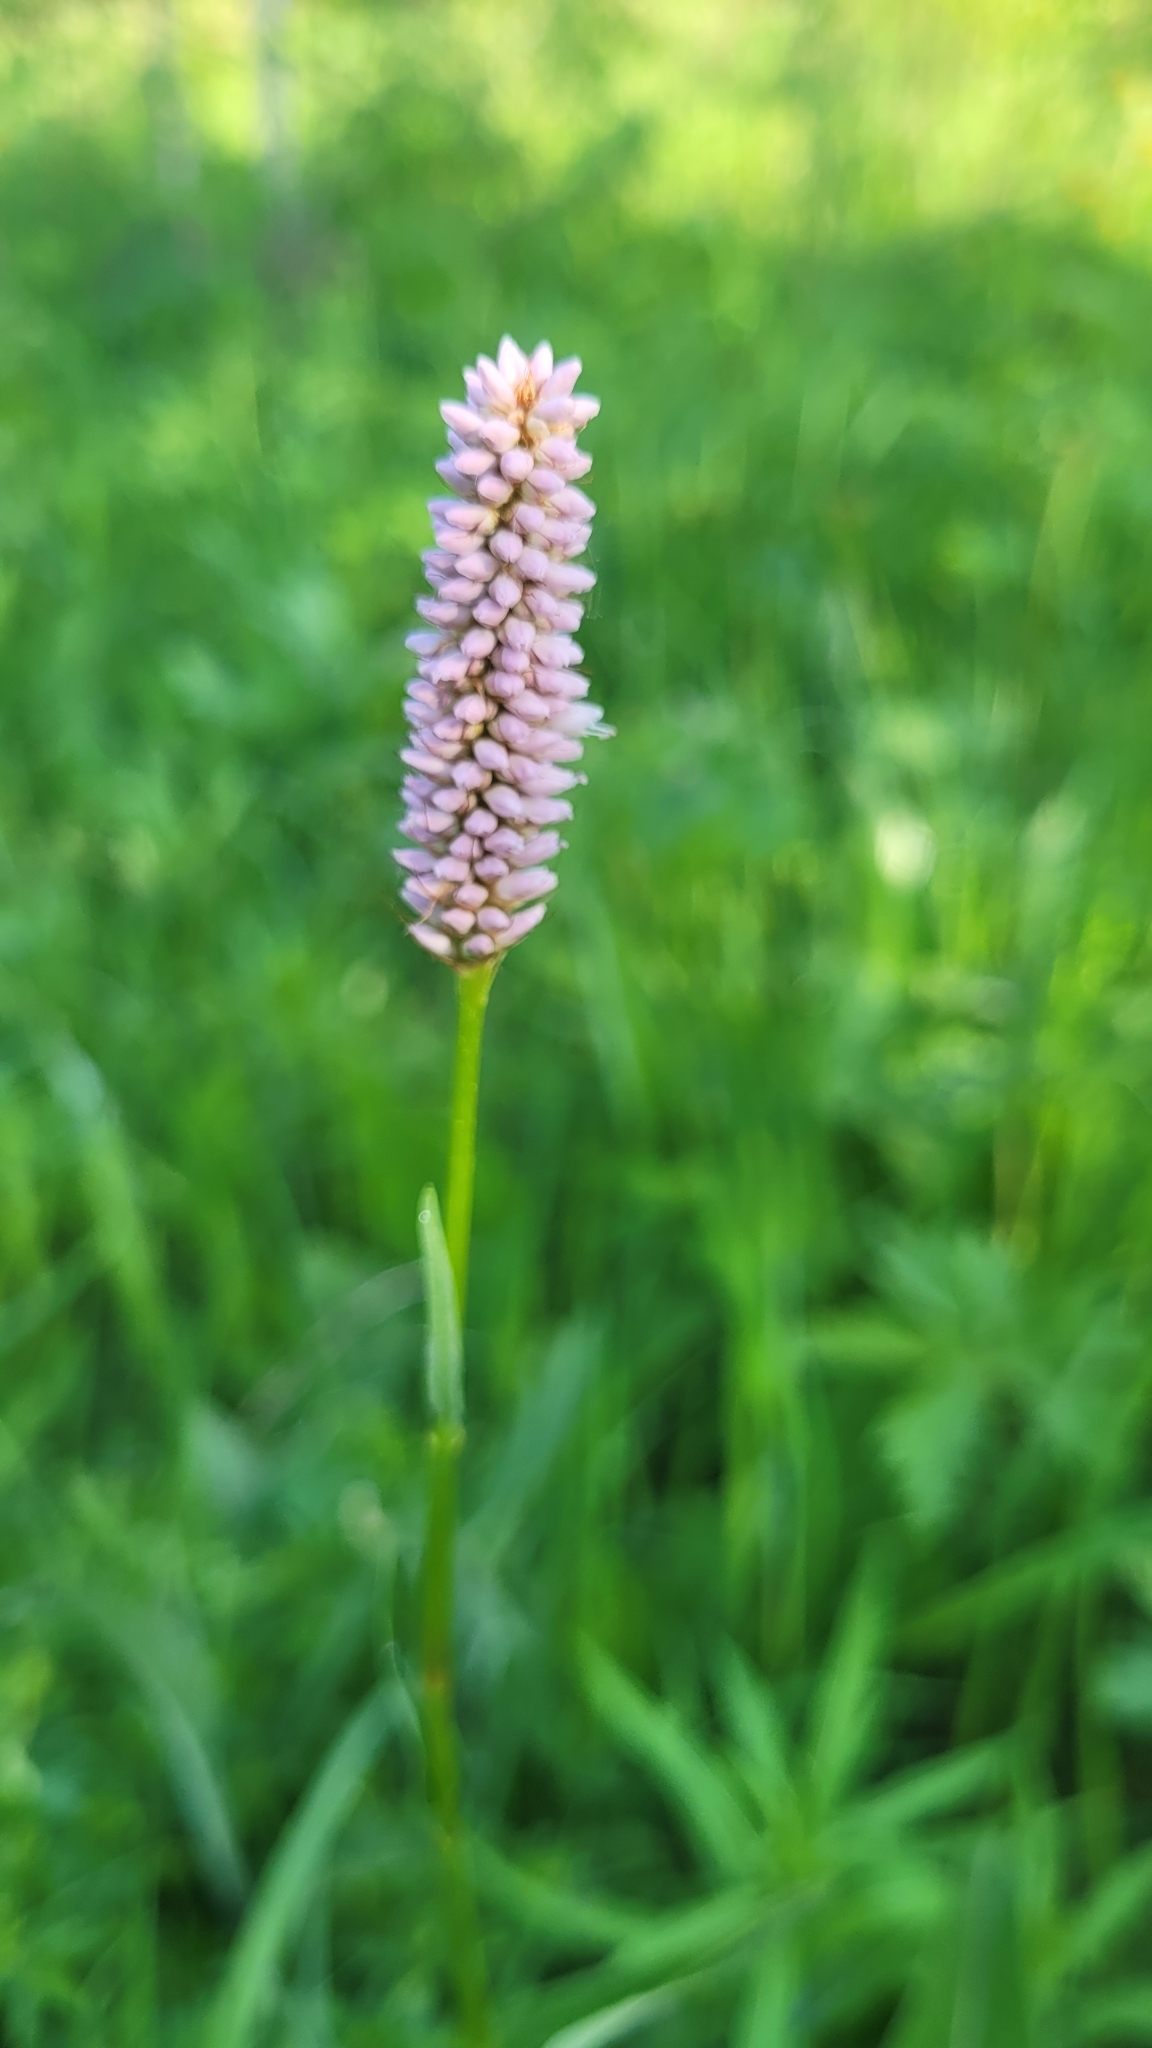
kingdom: Plantae
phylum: Tracheophyta
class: Magnoliopsida
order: Caryophyllales
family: Polygonaceae
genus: Bistorta
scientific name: Bistorta officinalis
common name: Common bistort
